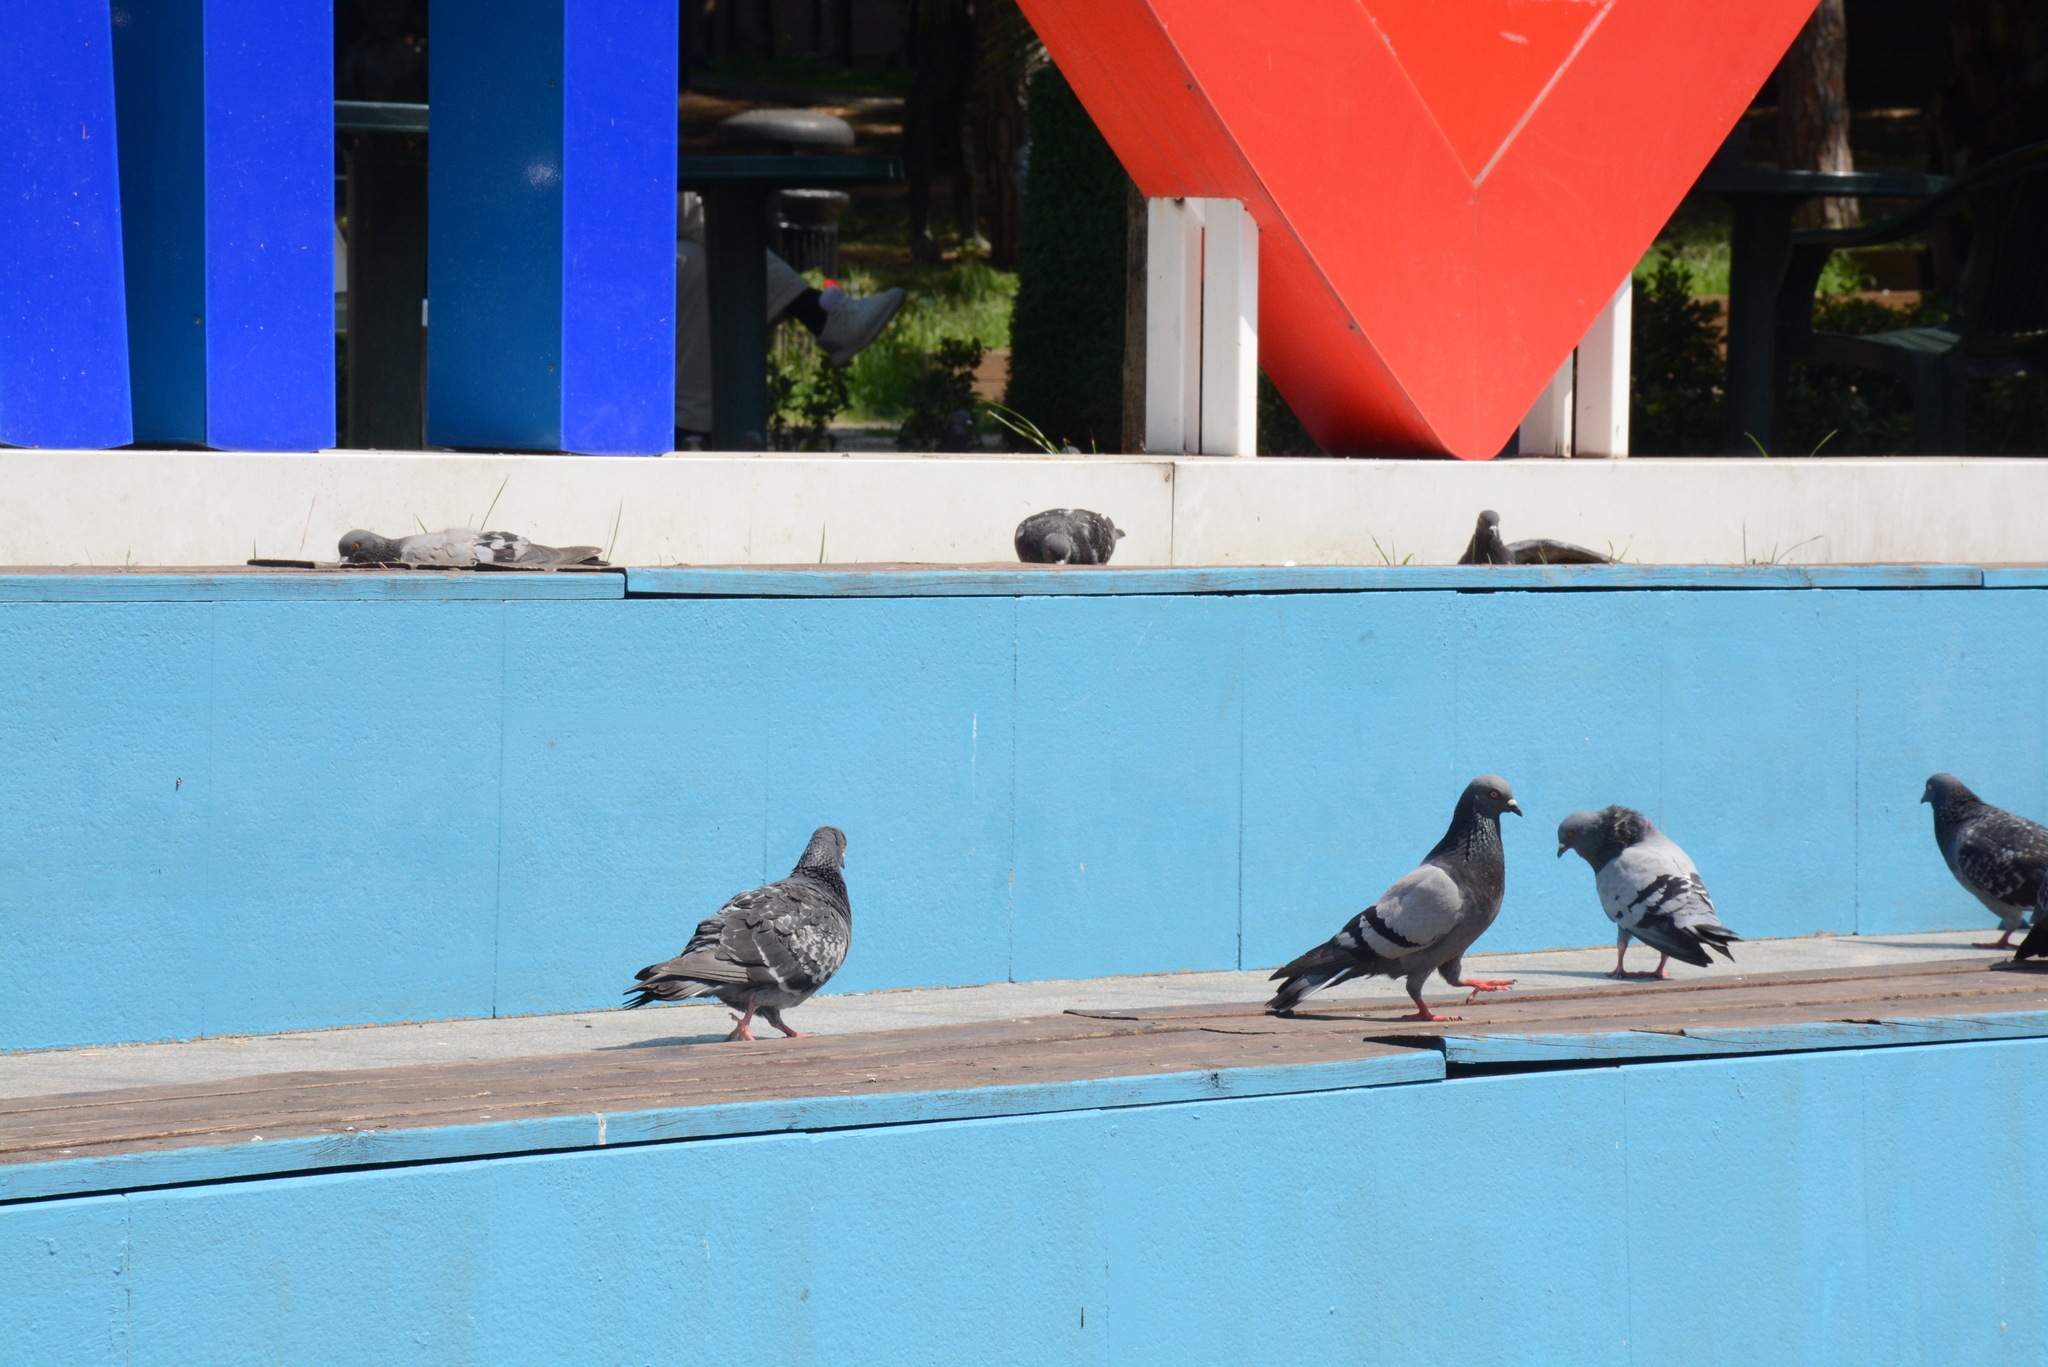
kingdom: Animalia
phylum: Chordata
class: Aves
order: Columbiformes
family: Columbidae
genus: Columba
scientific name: Columba livia
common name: Rock pigeon
